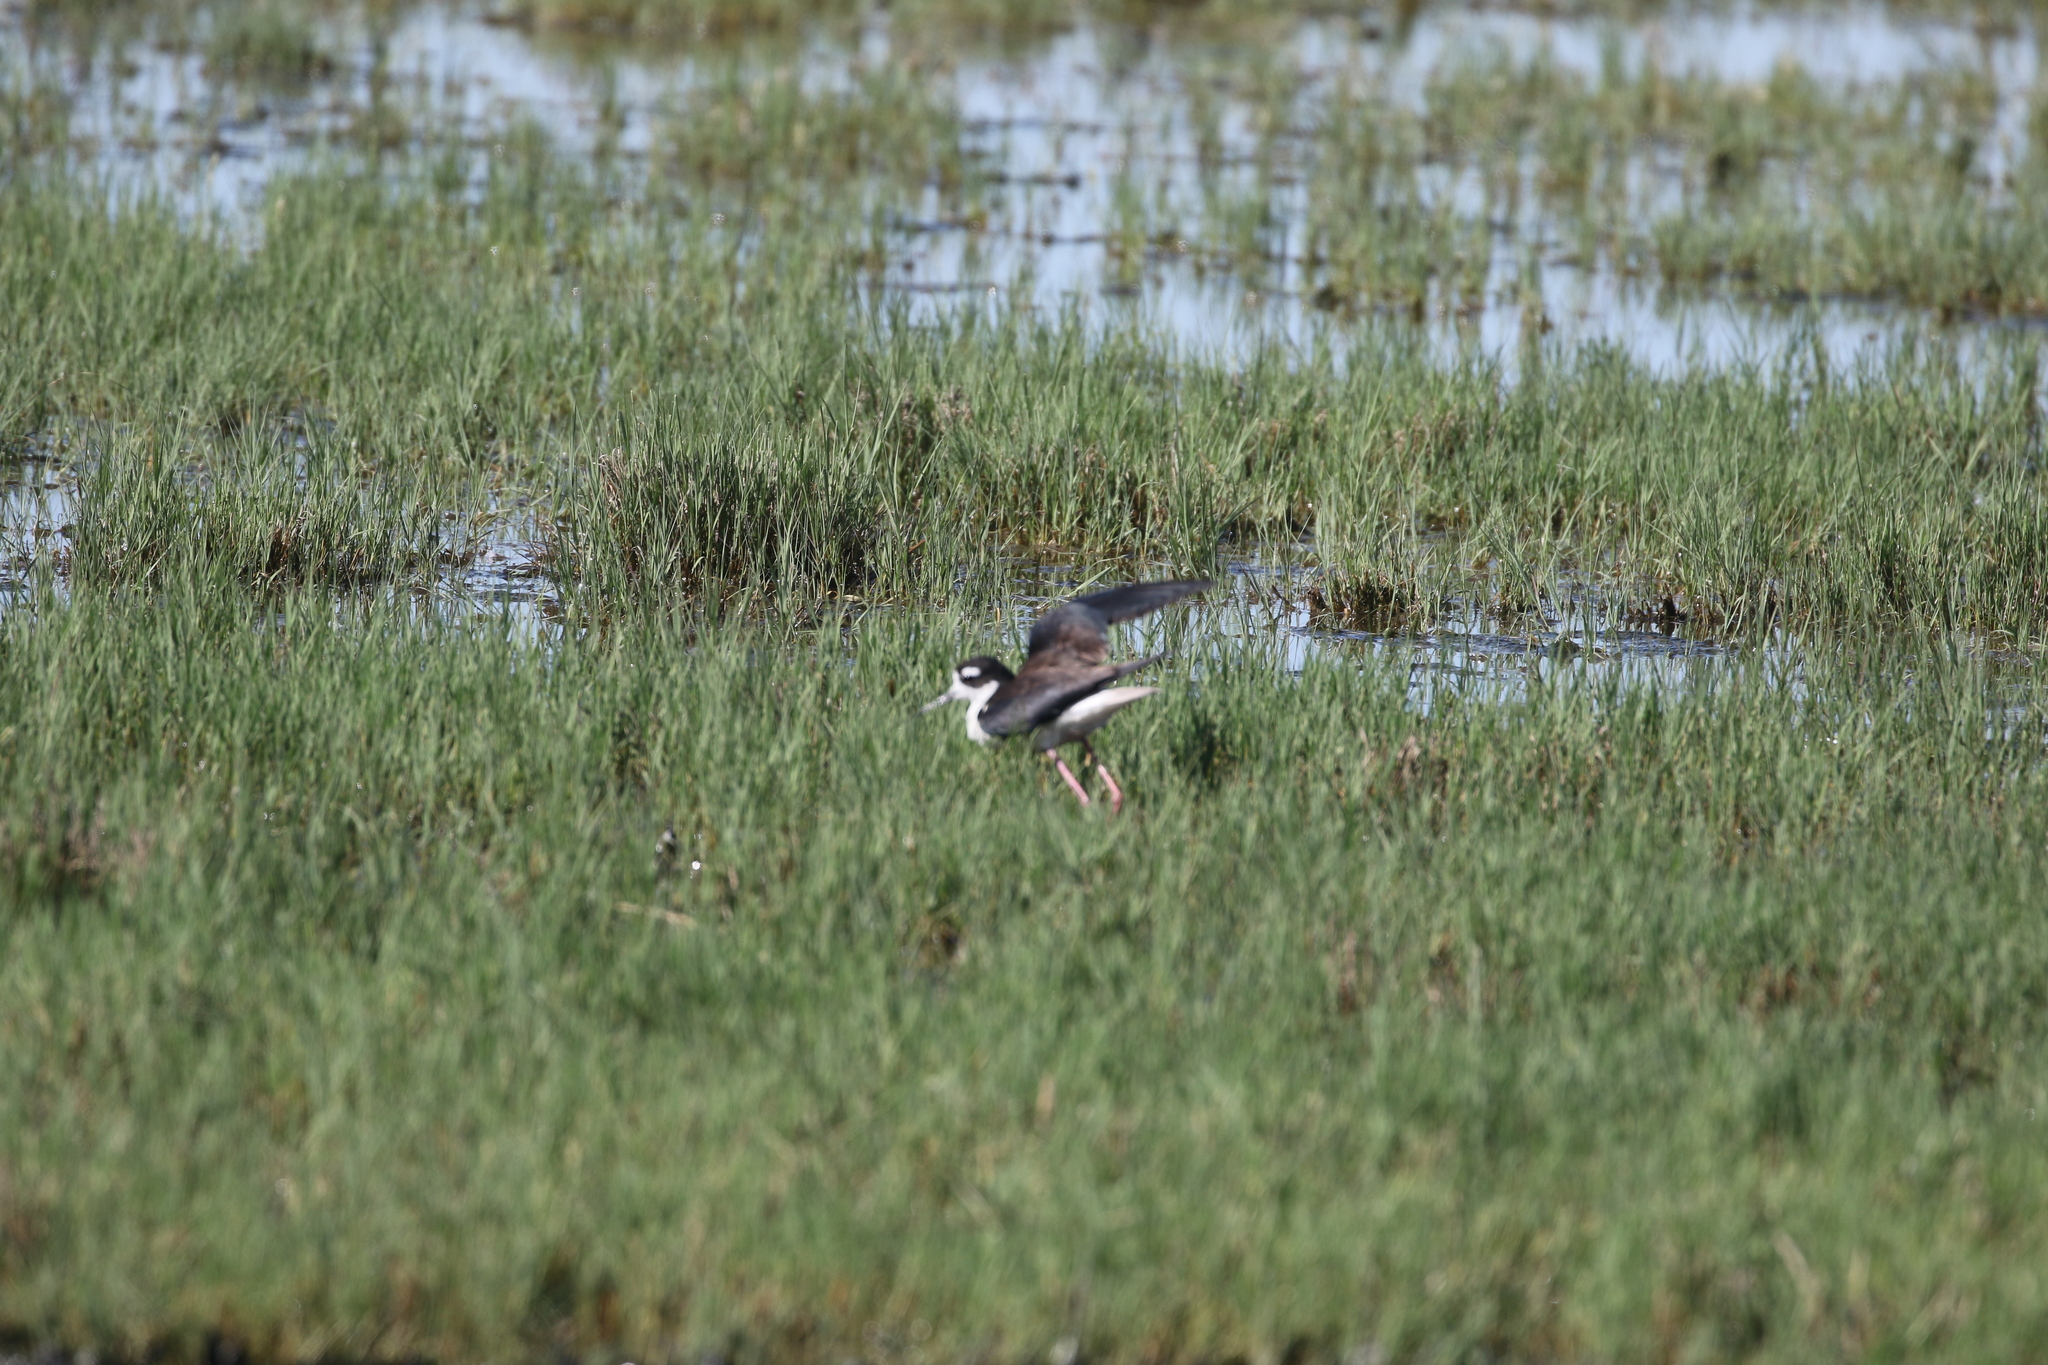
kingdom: Animalia
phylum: Chordata
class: Aves
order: Charadriiformes
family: Recurvirostridae
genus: Himantopus
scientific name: Himantopus mexicanus
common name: Black-necked stilt
